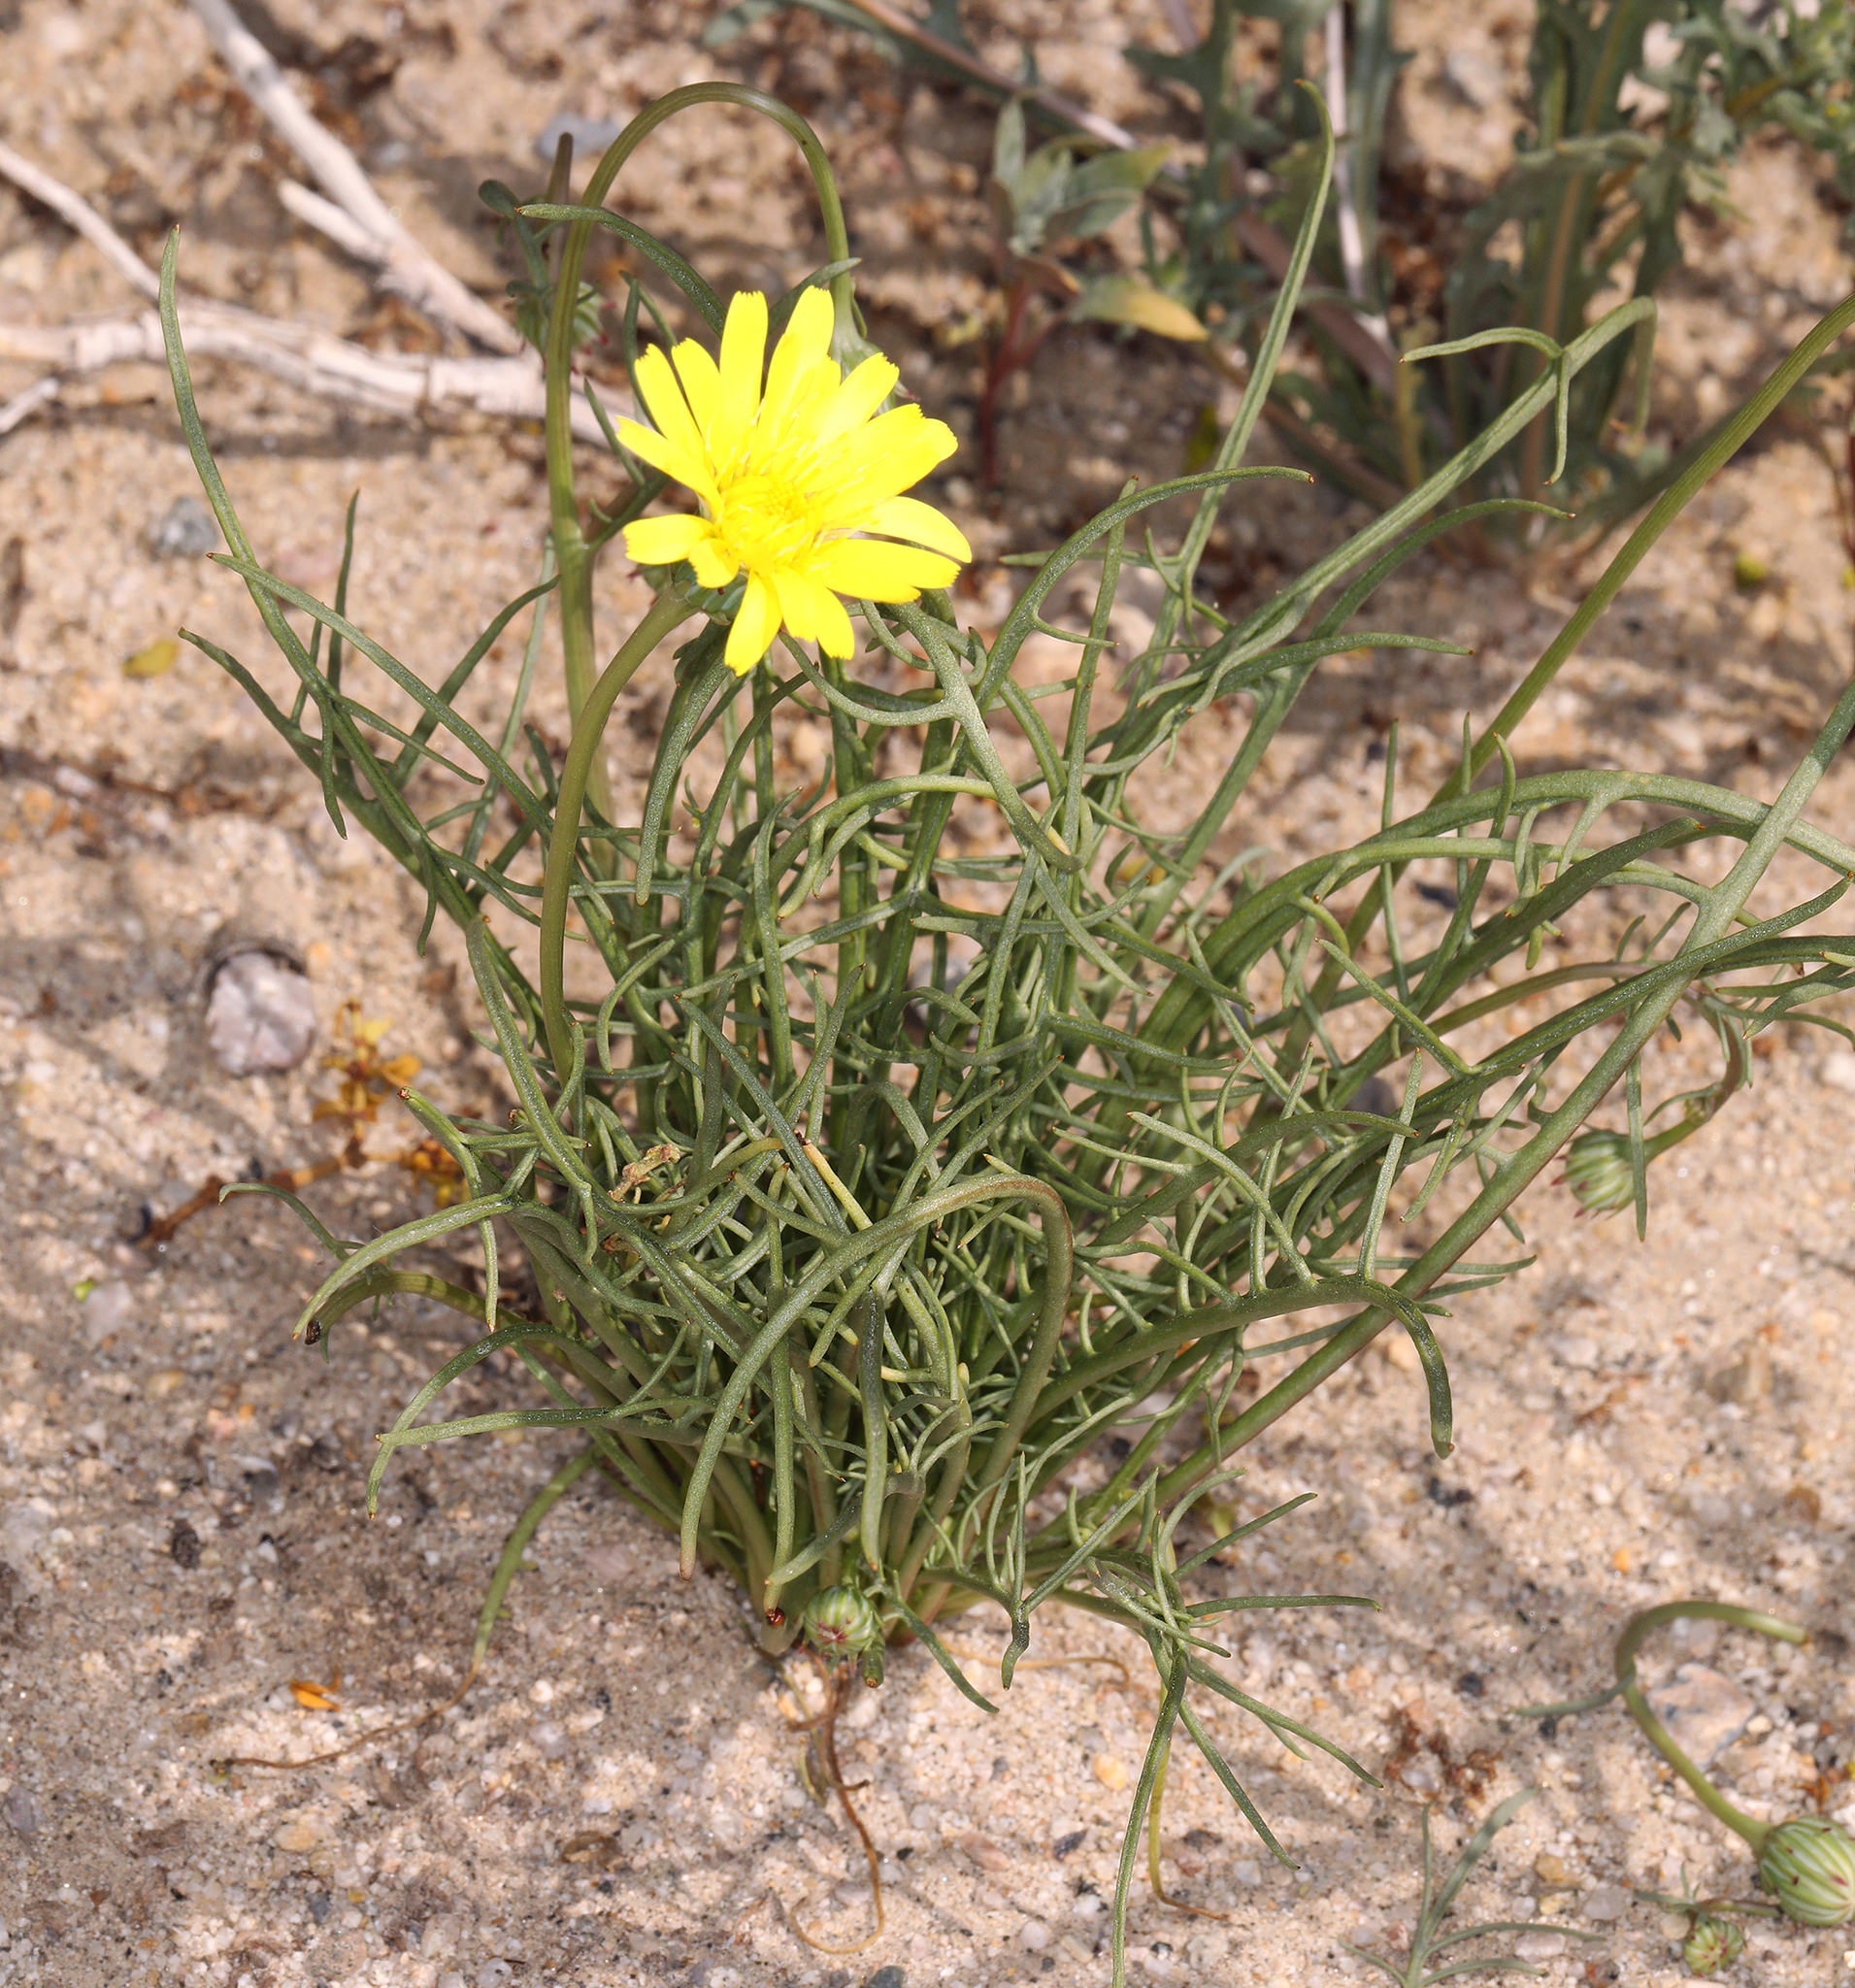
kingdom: Plantae
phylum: Tracheophyta
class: Magnoliopsida
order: Asterales
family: Asteraceae
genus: Malacothrix
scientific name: Malacothrix glabrata
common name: Smooth desert-dandelion
